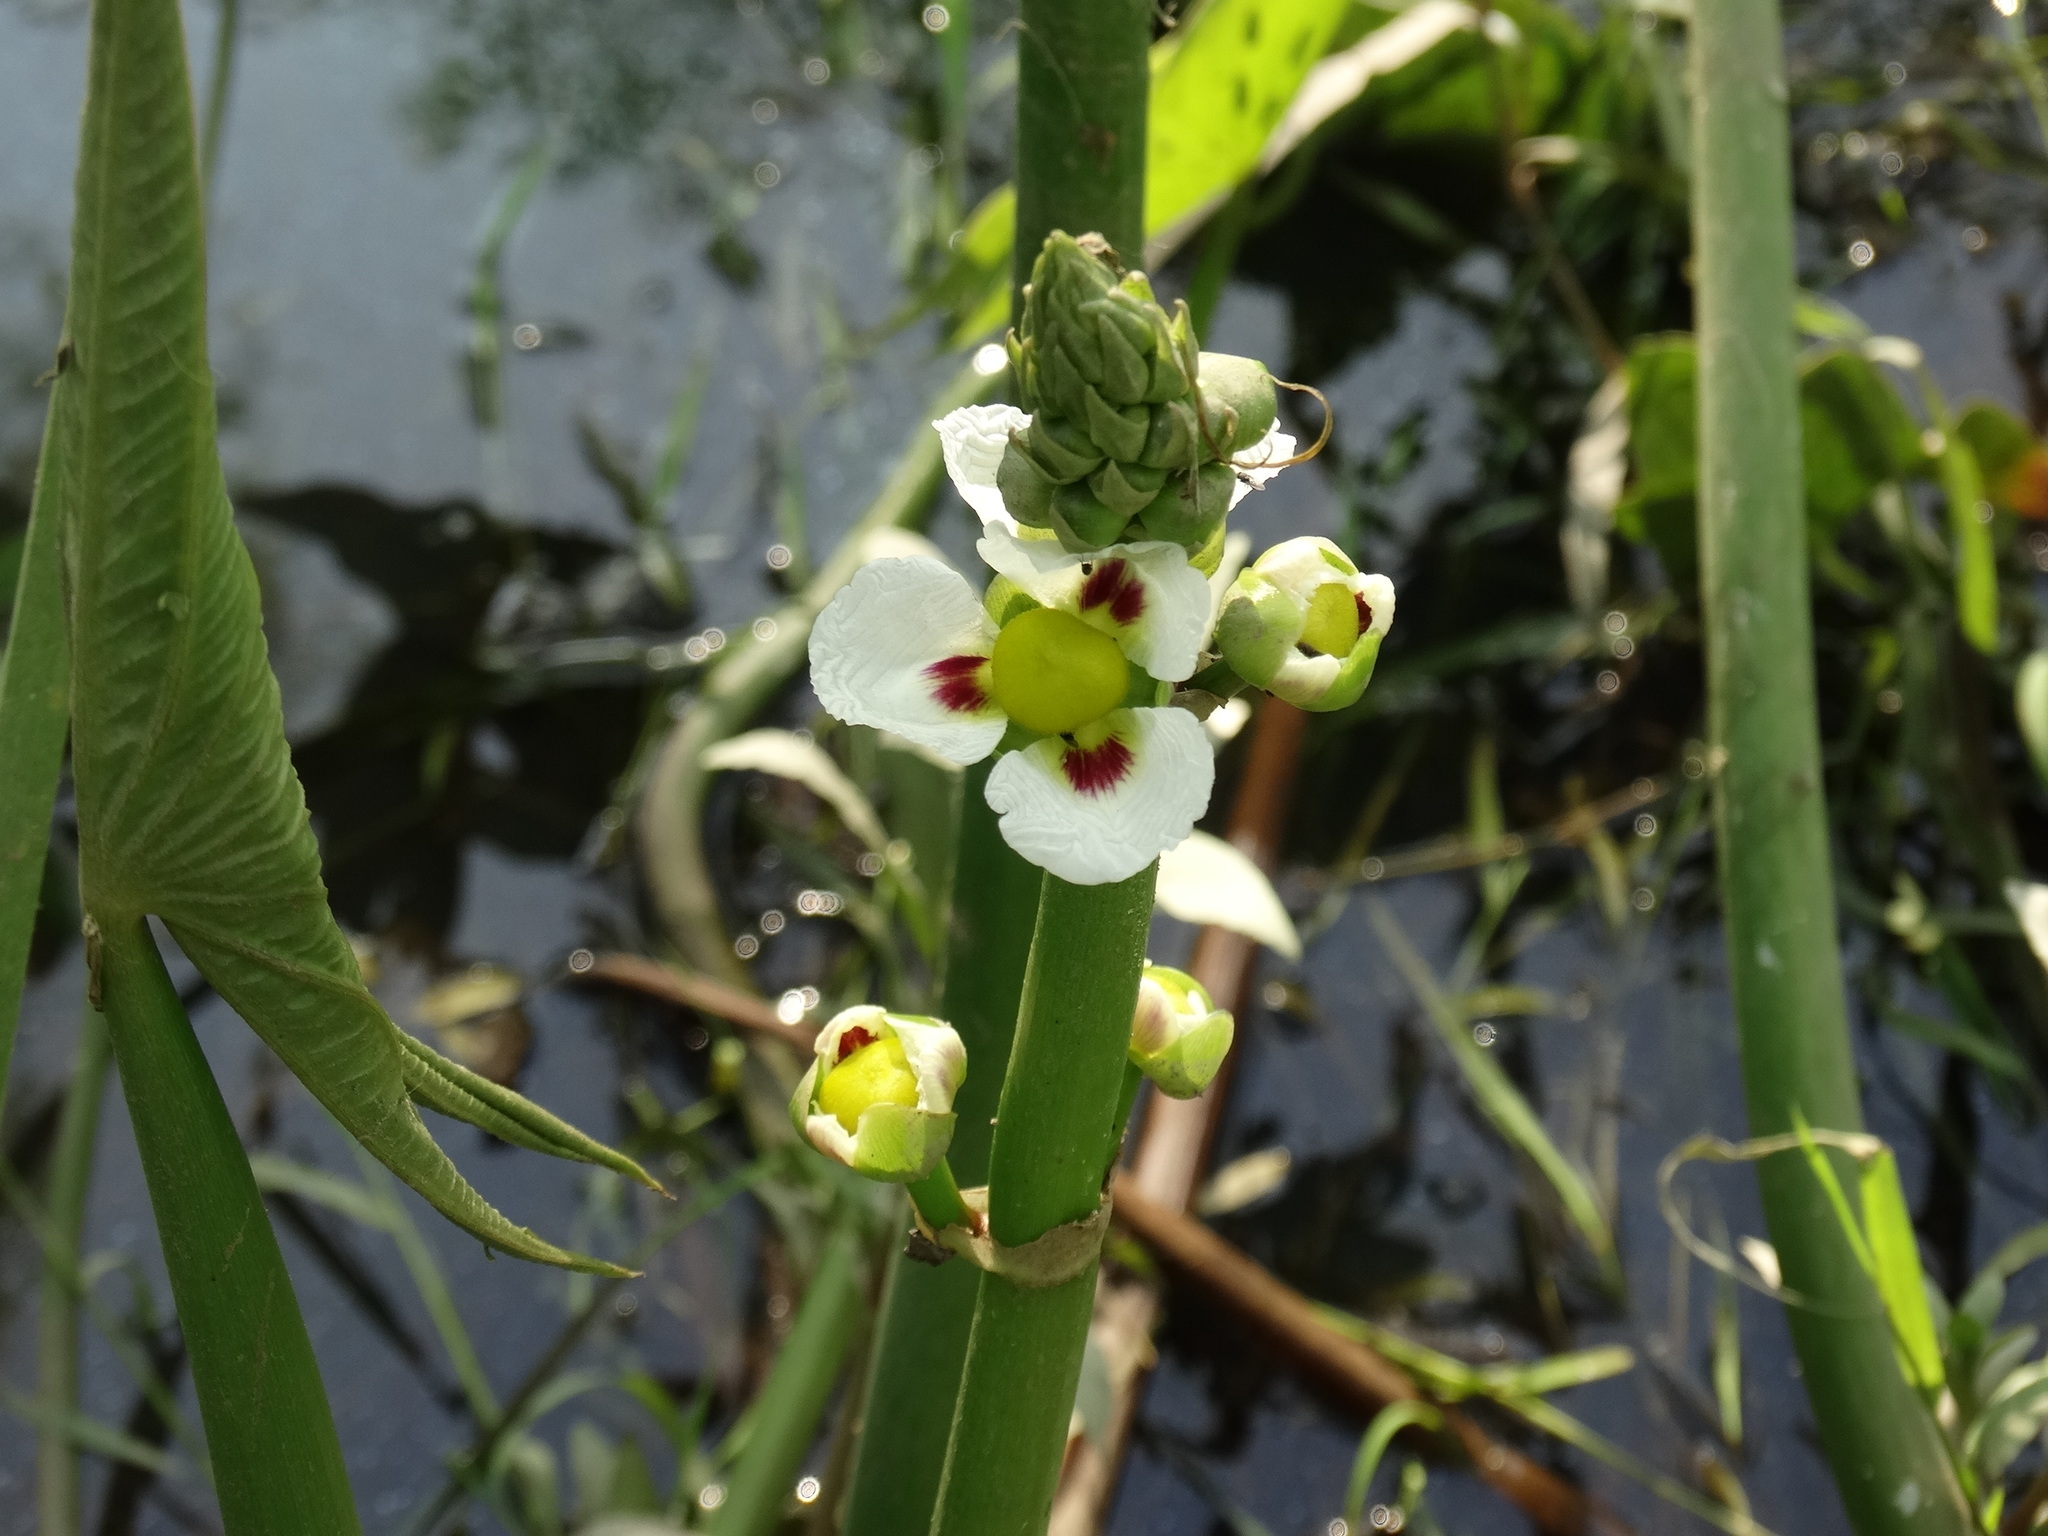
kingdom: Plantae
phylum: Tracheophyta
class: Liliopsida
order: Alismatales
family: Alismataceae
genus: Sagittaria
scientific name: Sagittaria montevidensis
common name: Giant arrowhead
